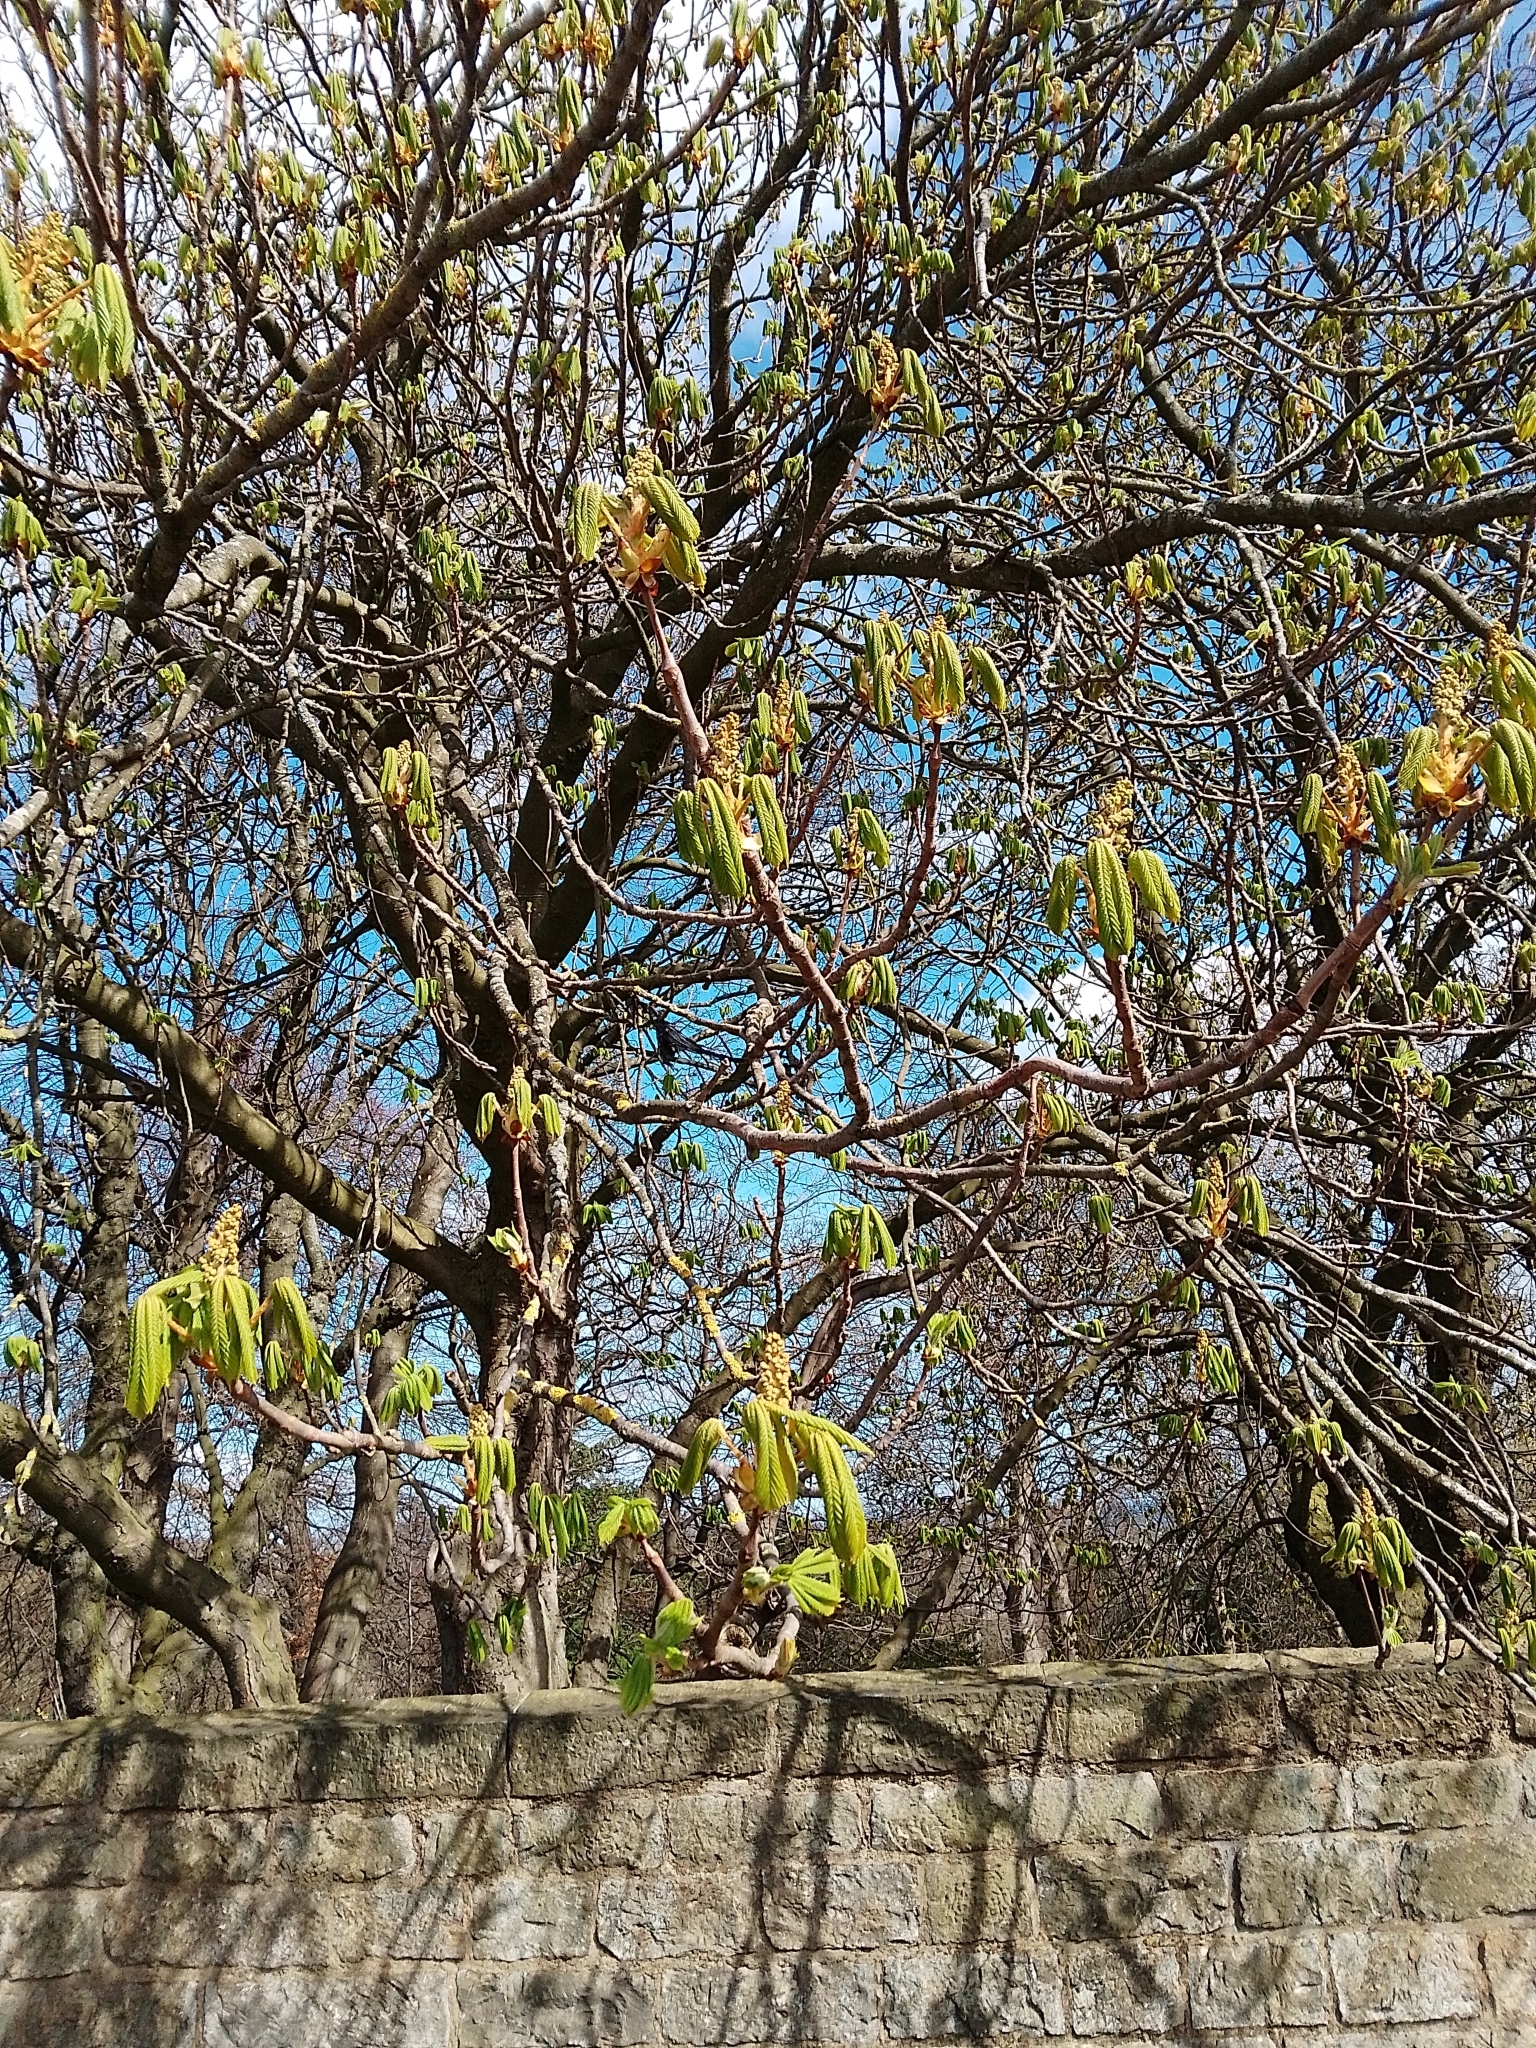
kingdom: Plantae
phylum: Tracheophyta
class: Magnoliopsida
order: Sapindales
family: Sapindaceae
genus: Aesculus
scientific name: Aesculus hippocastanum
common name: Horse-chestnut
